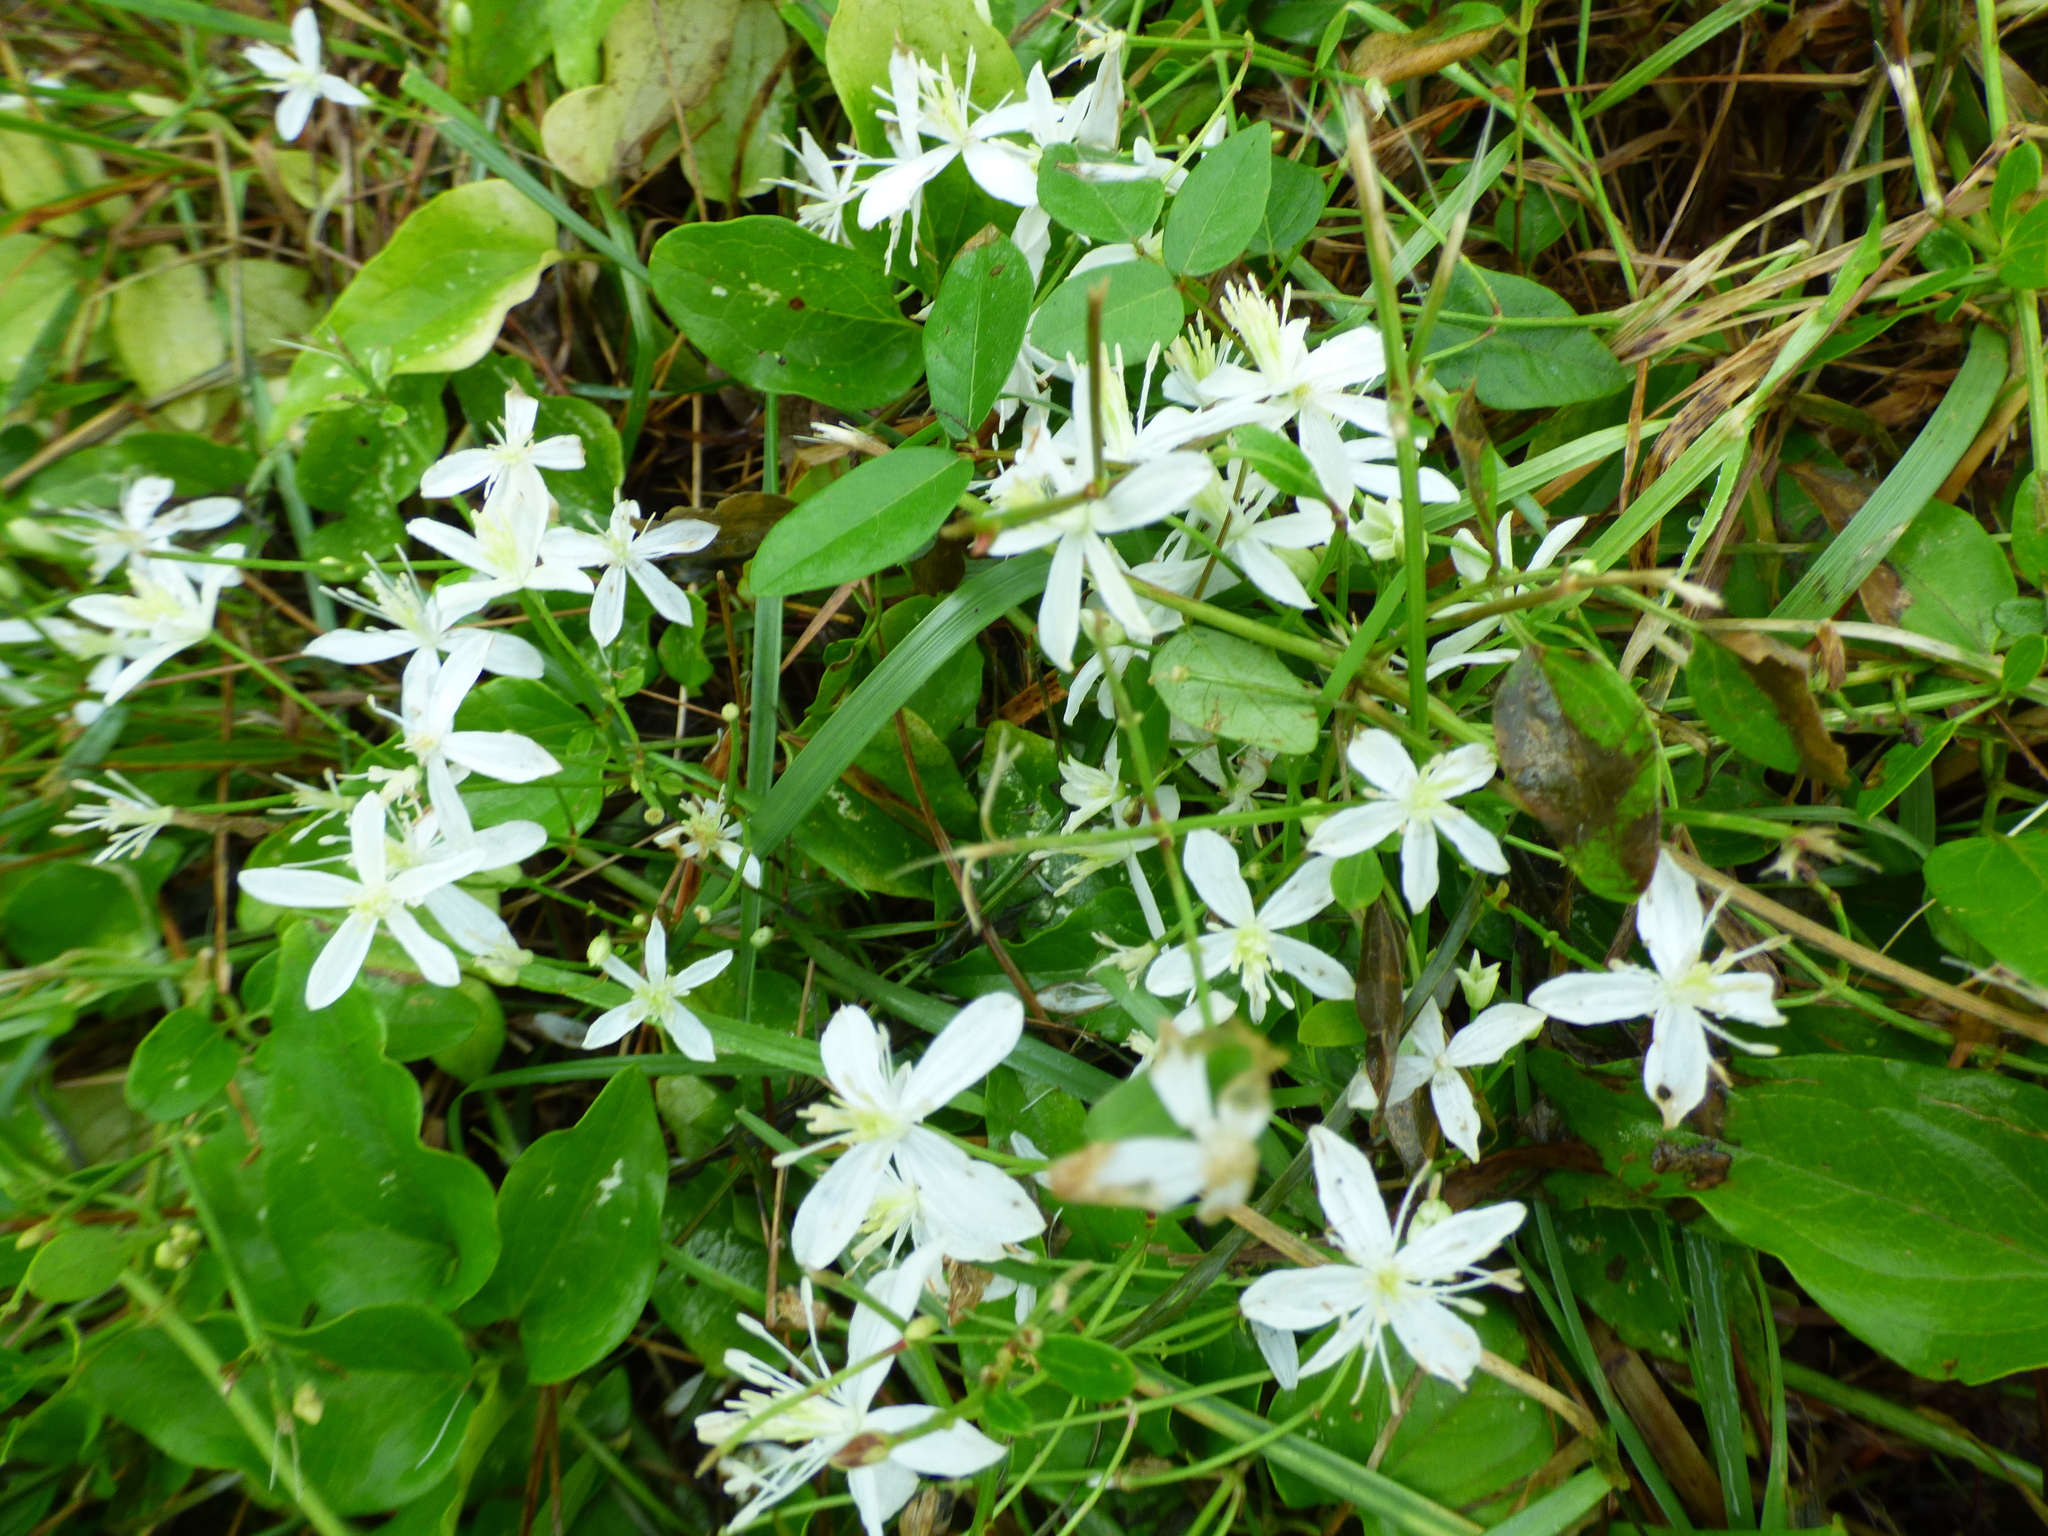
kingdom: Plantae
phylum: Tracheophyta
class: Magnoliopsida
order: Ranunculales
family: Ranunculaceae
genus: Clematis
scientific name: Clematis terniflora
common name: Sweet autumn clematis
